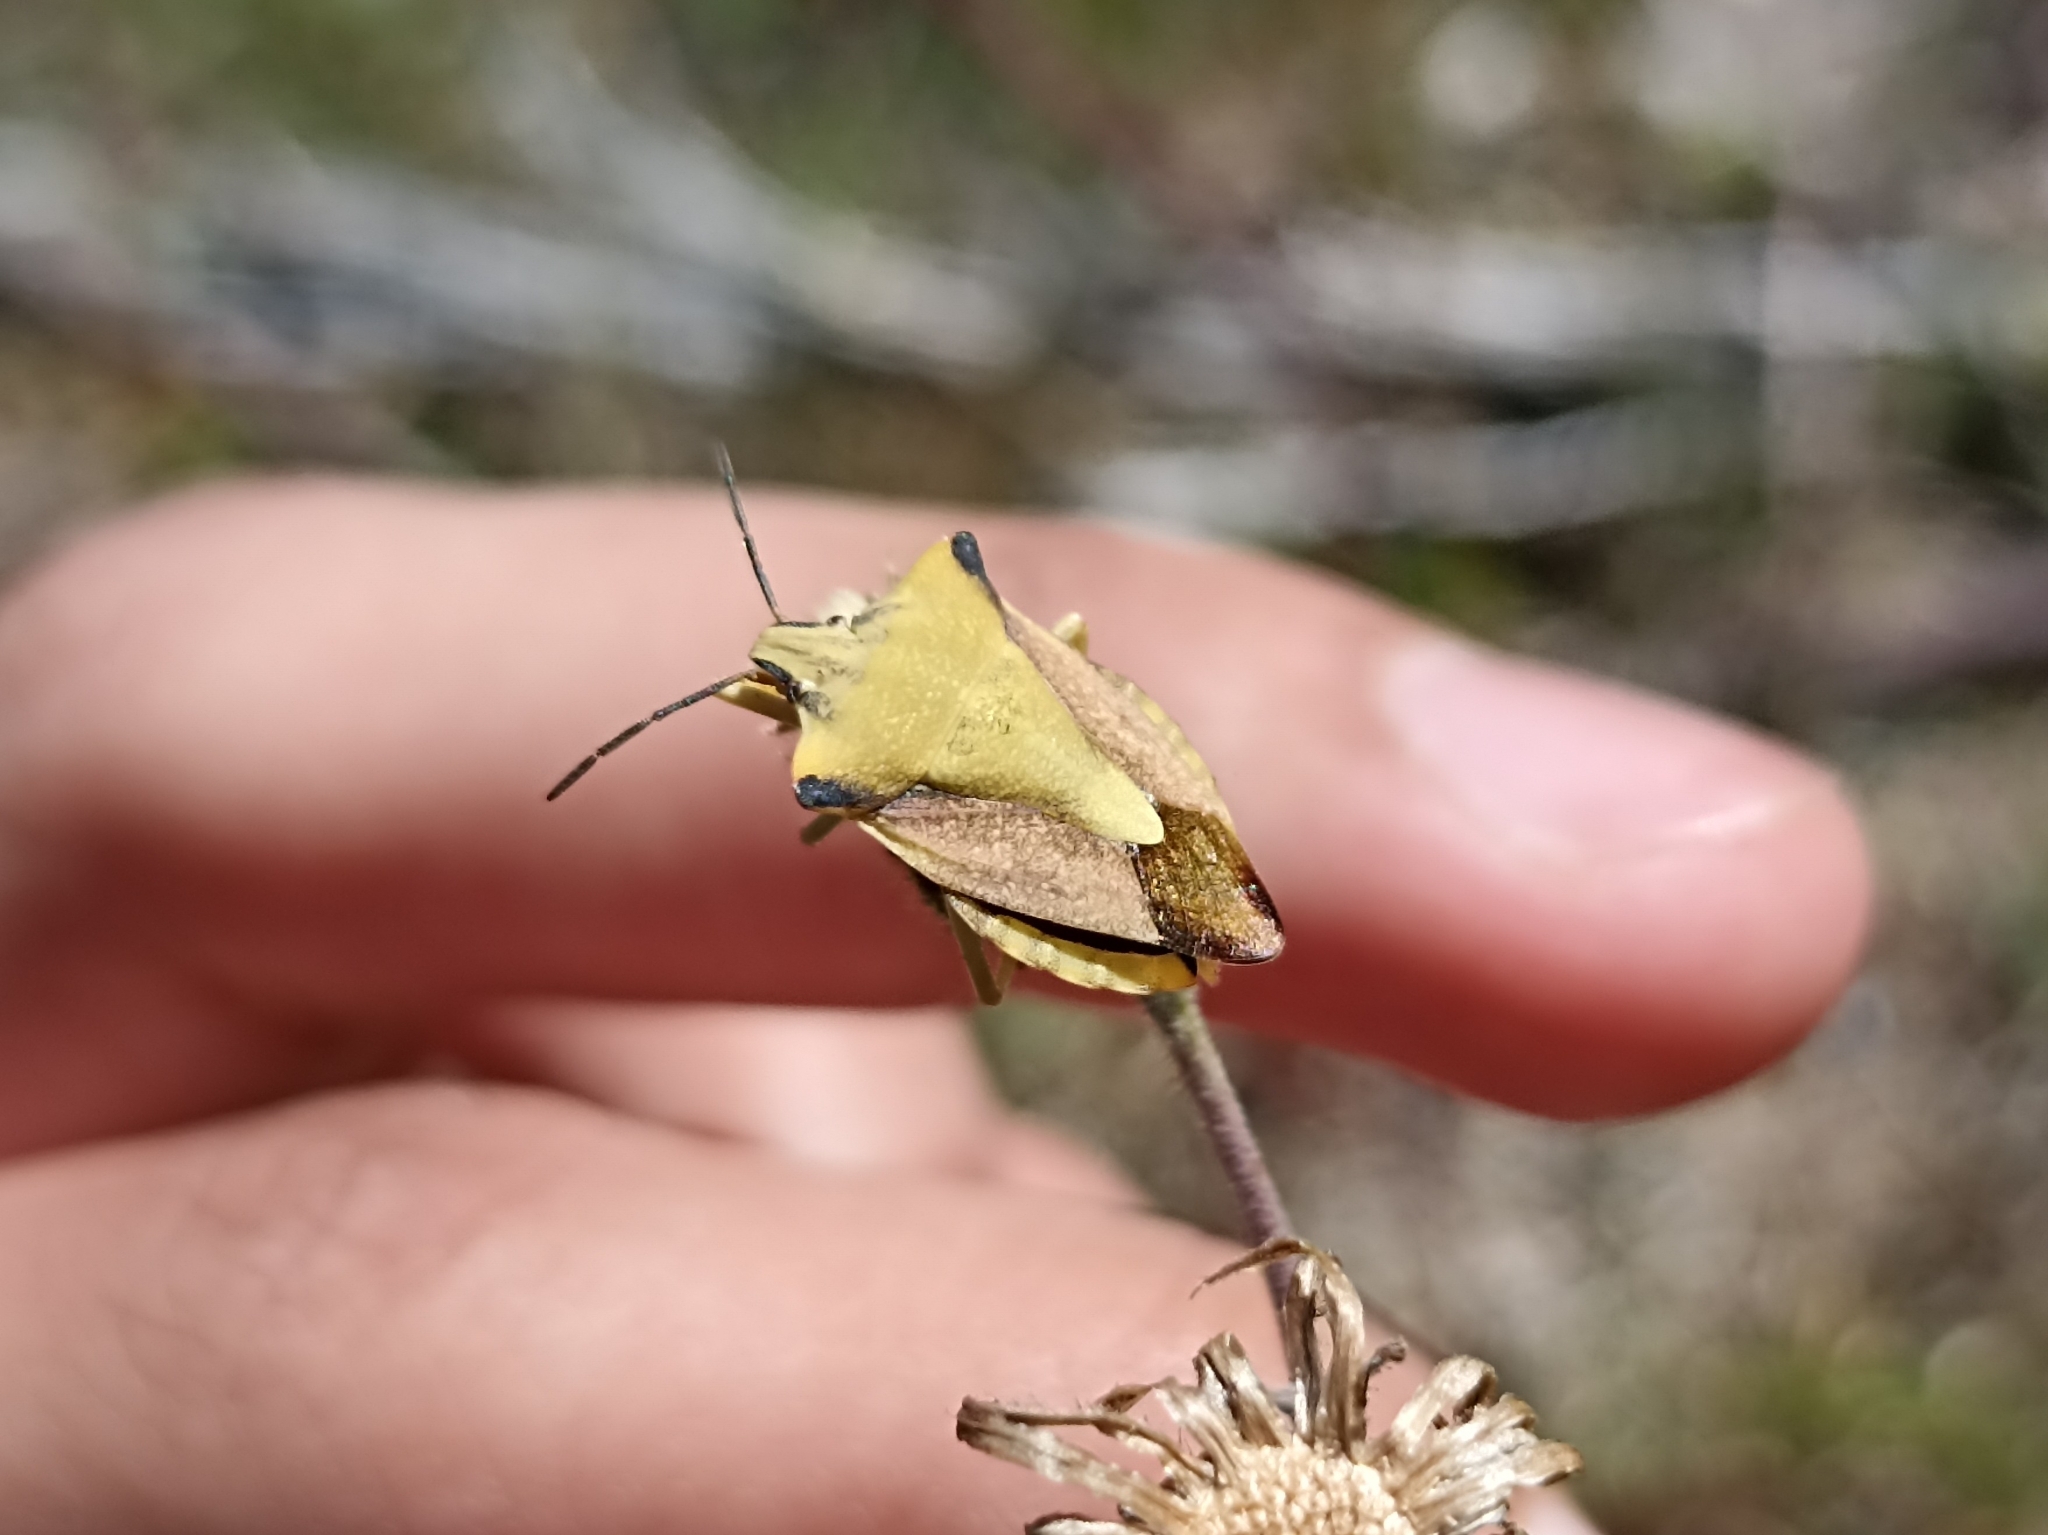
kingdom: Animalia
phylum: Arthropoda
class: Insecta
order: Hemiptera
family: Pentatomidae
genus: Carpocoris
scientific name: Carpocoris fuscispinus
